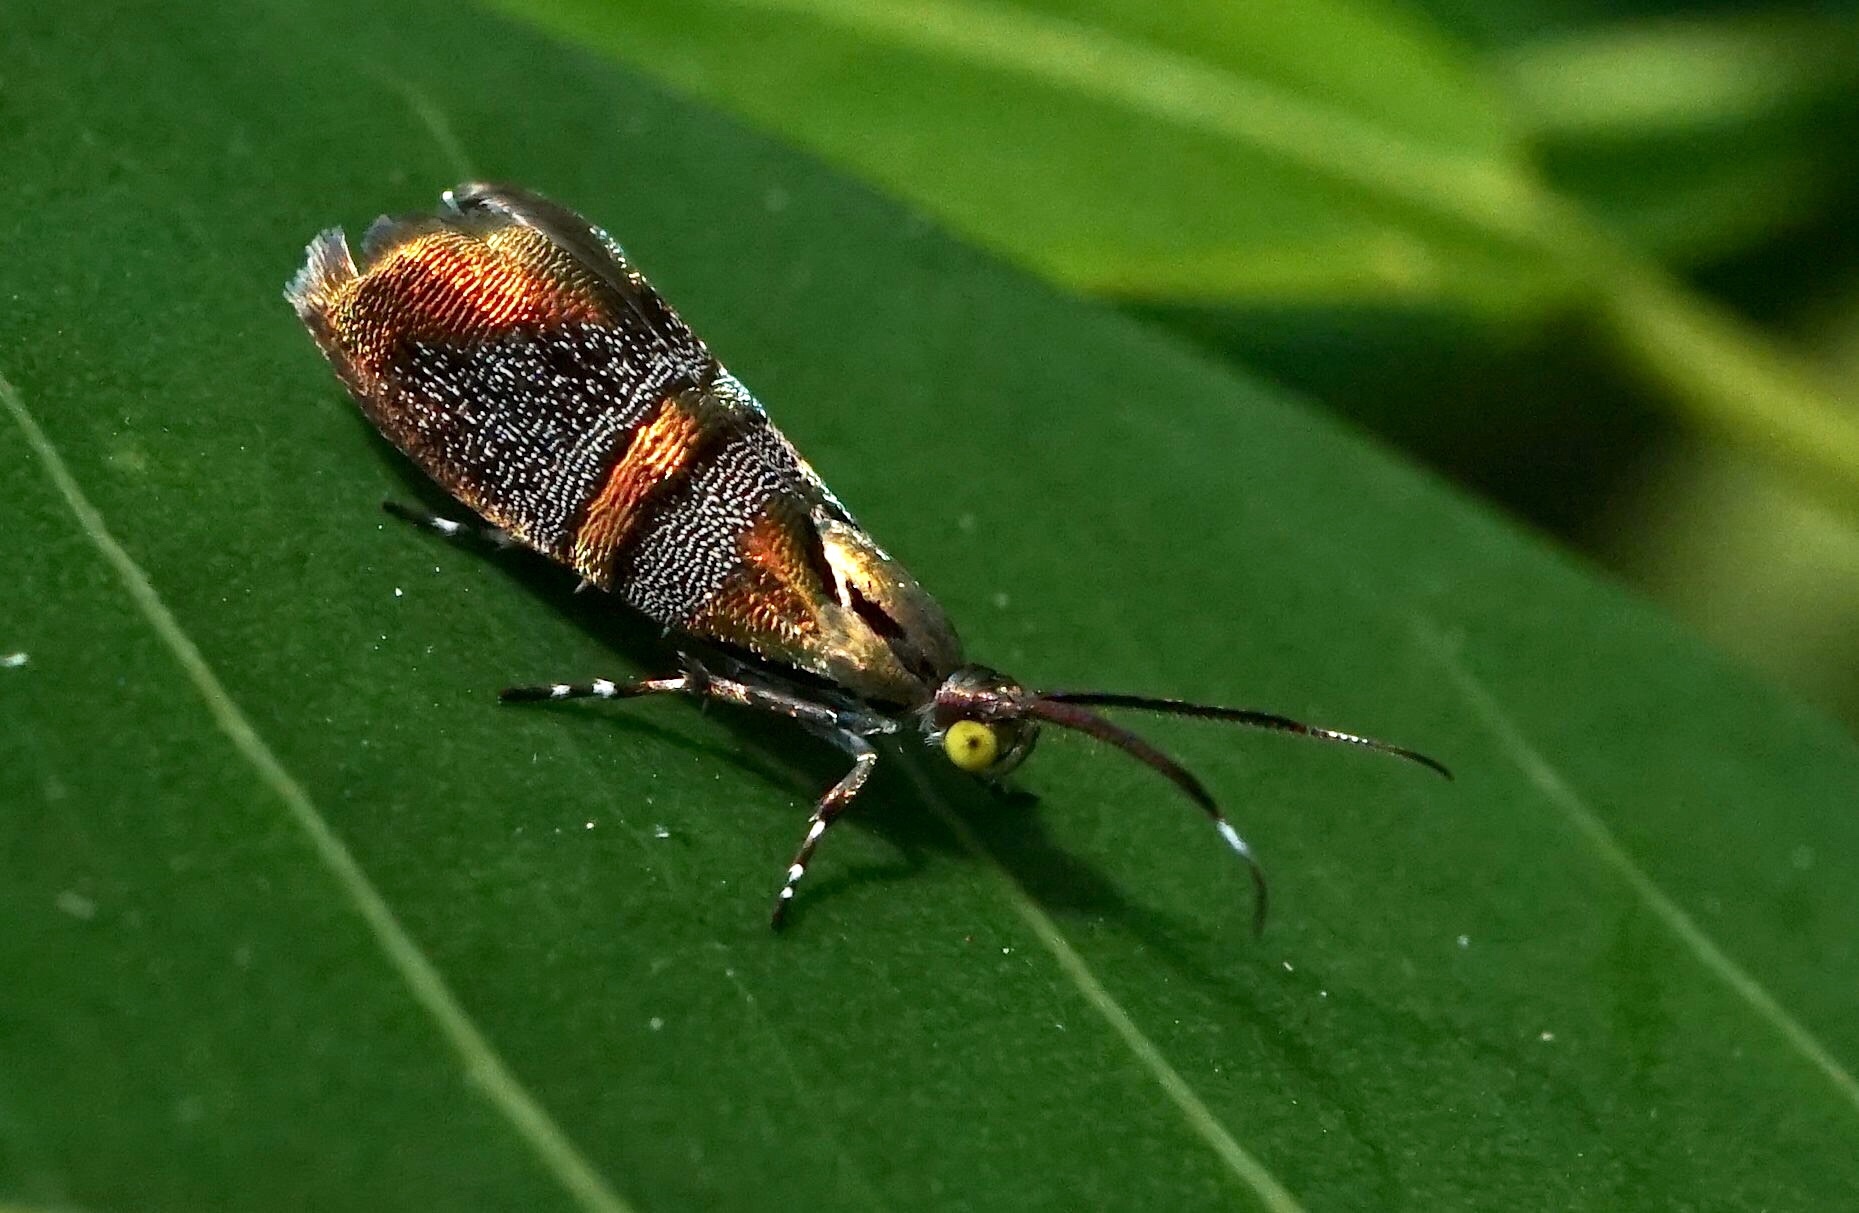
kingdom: Animalia
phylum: Arthropoda
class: Insecta
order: Lepidoptera
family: Choreutidae
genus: Tortyra
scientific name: Tortyra slossonia
